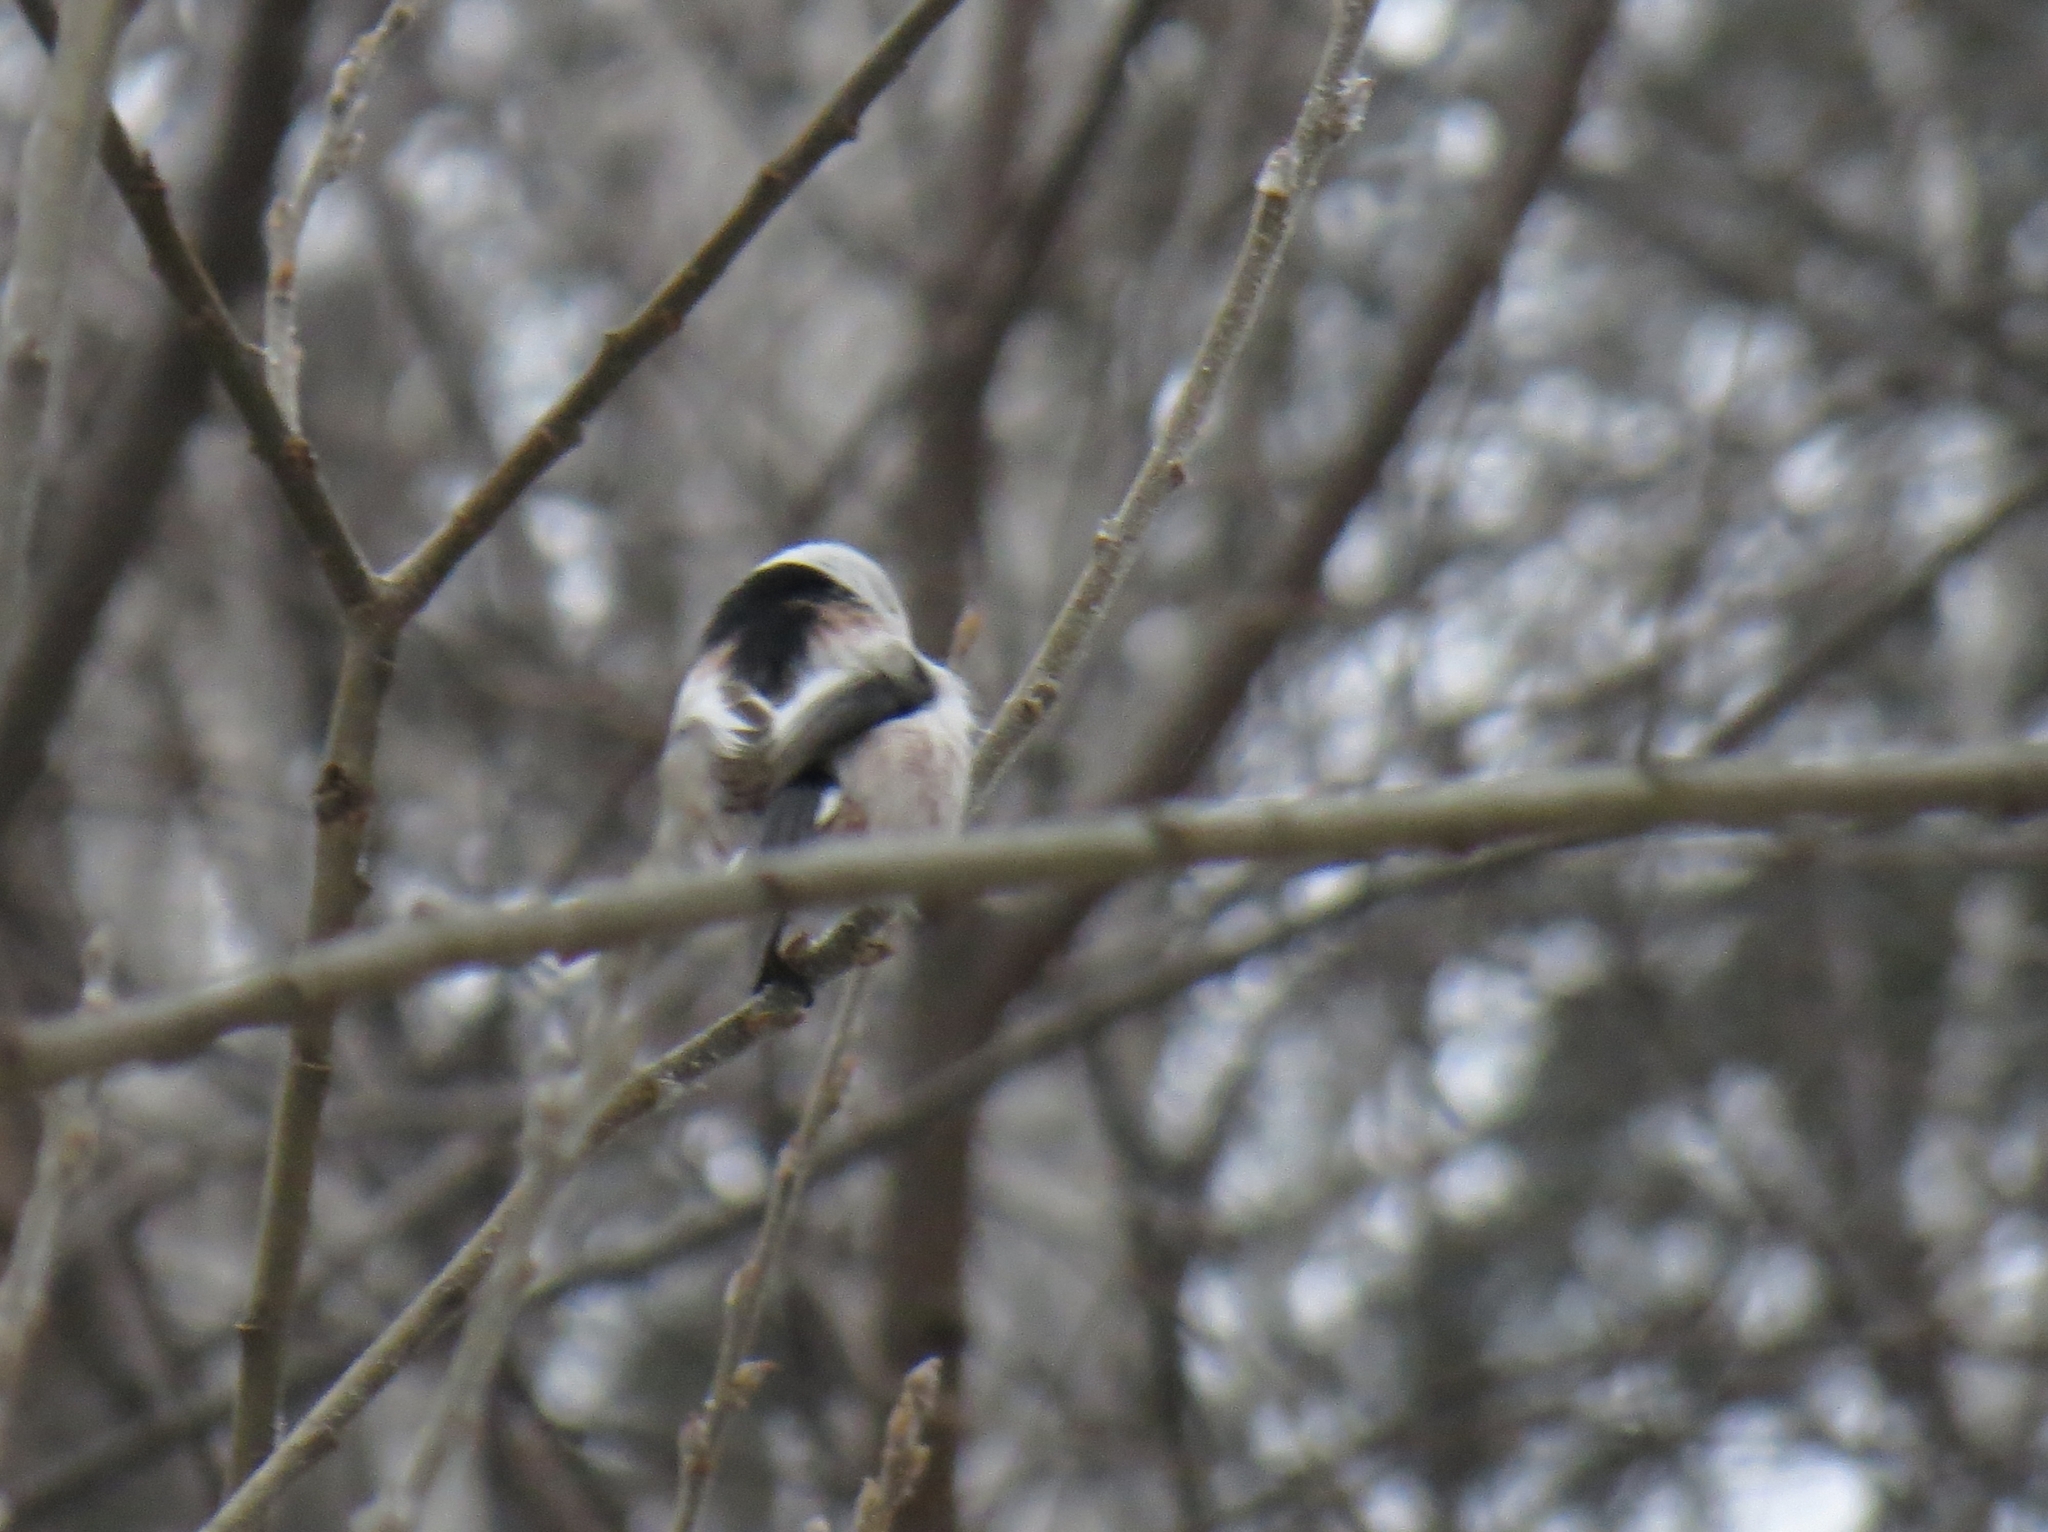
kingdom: Animalia
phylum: Chordata
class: Aves
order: Passeriformes
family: Aegithalidae
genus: Aegithalos
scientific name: Aegithalos caudatus
